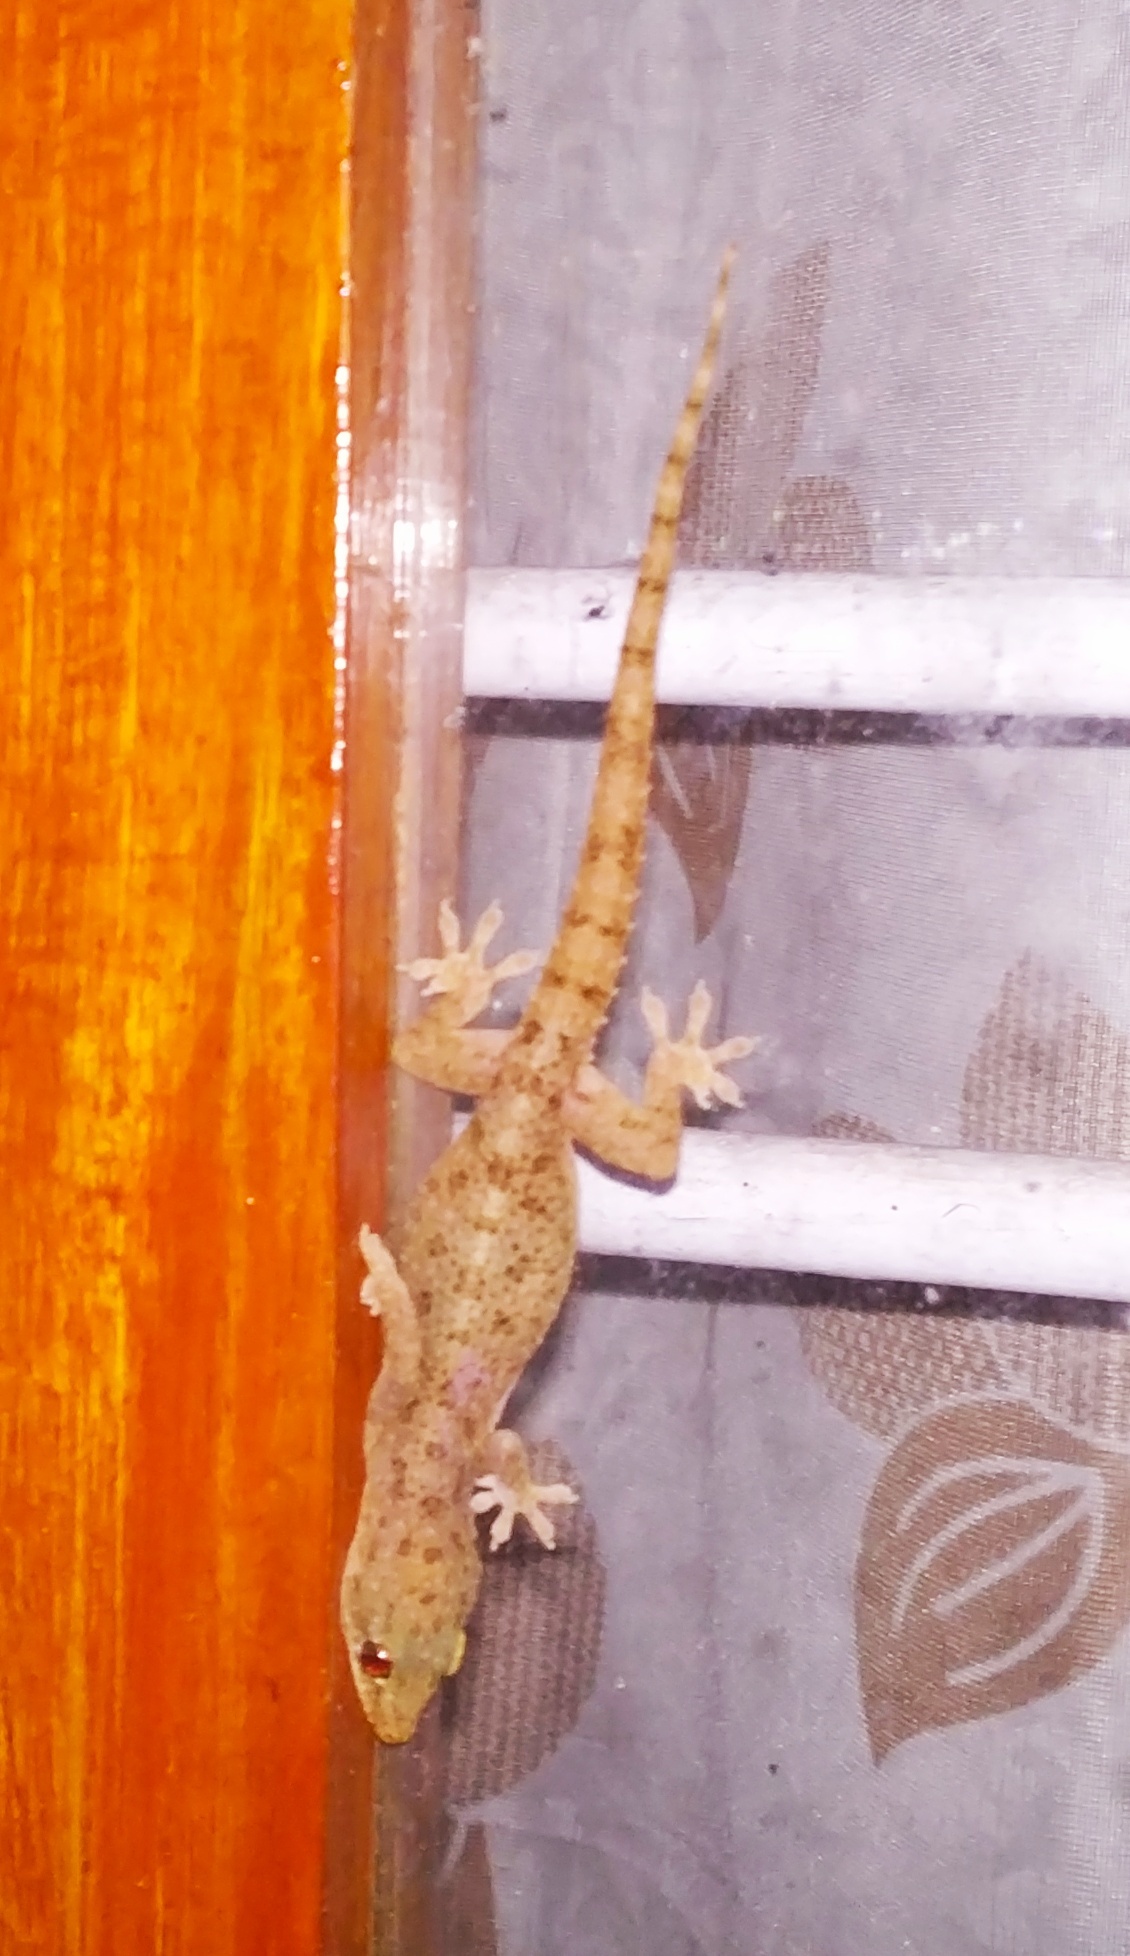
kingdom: Animalia
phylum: Chordata
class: Squamata
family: Gekkonidae
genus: Hemidactylus
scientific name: Hemidactylus brookii
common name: Brook's house gecko
